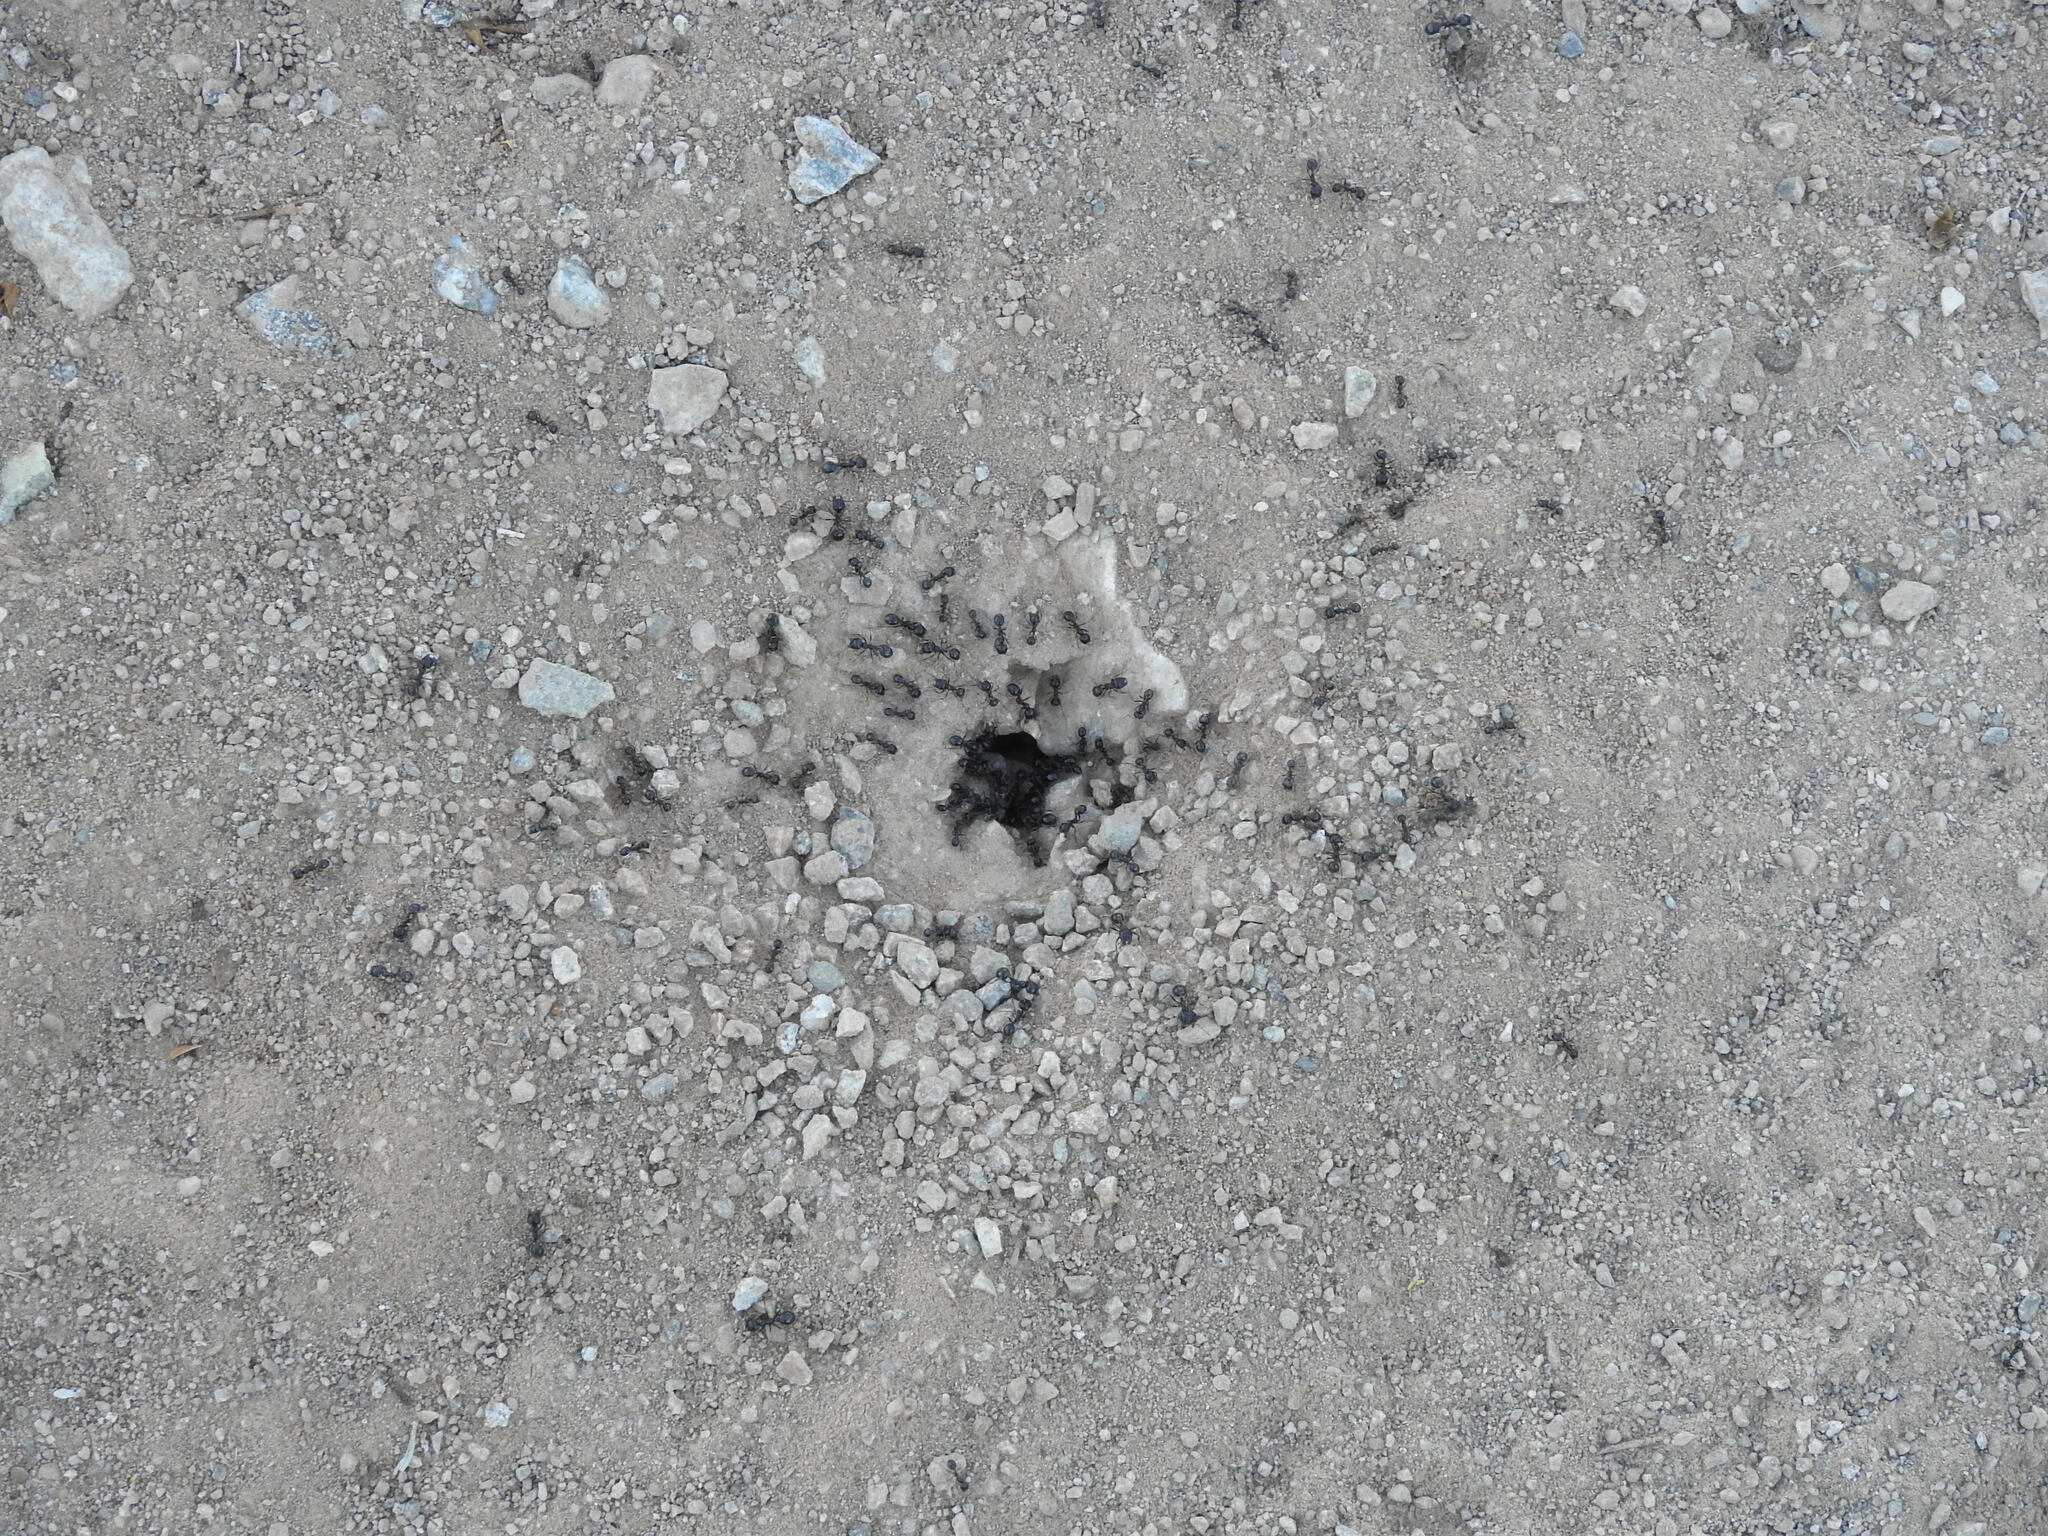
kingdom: Animalia
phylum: Arthropoda
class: Insecta
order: Hymenoptera
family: Formicidae
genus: Messor
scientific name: Messor pergandei
